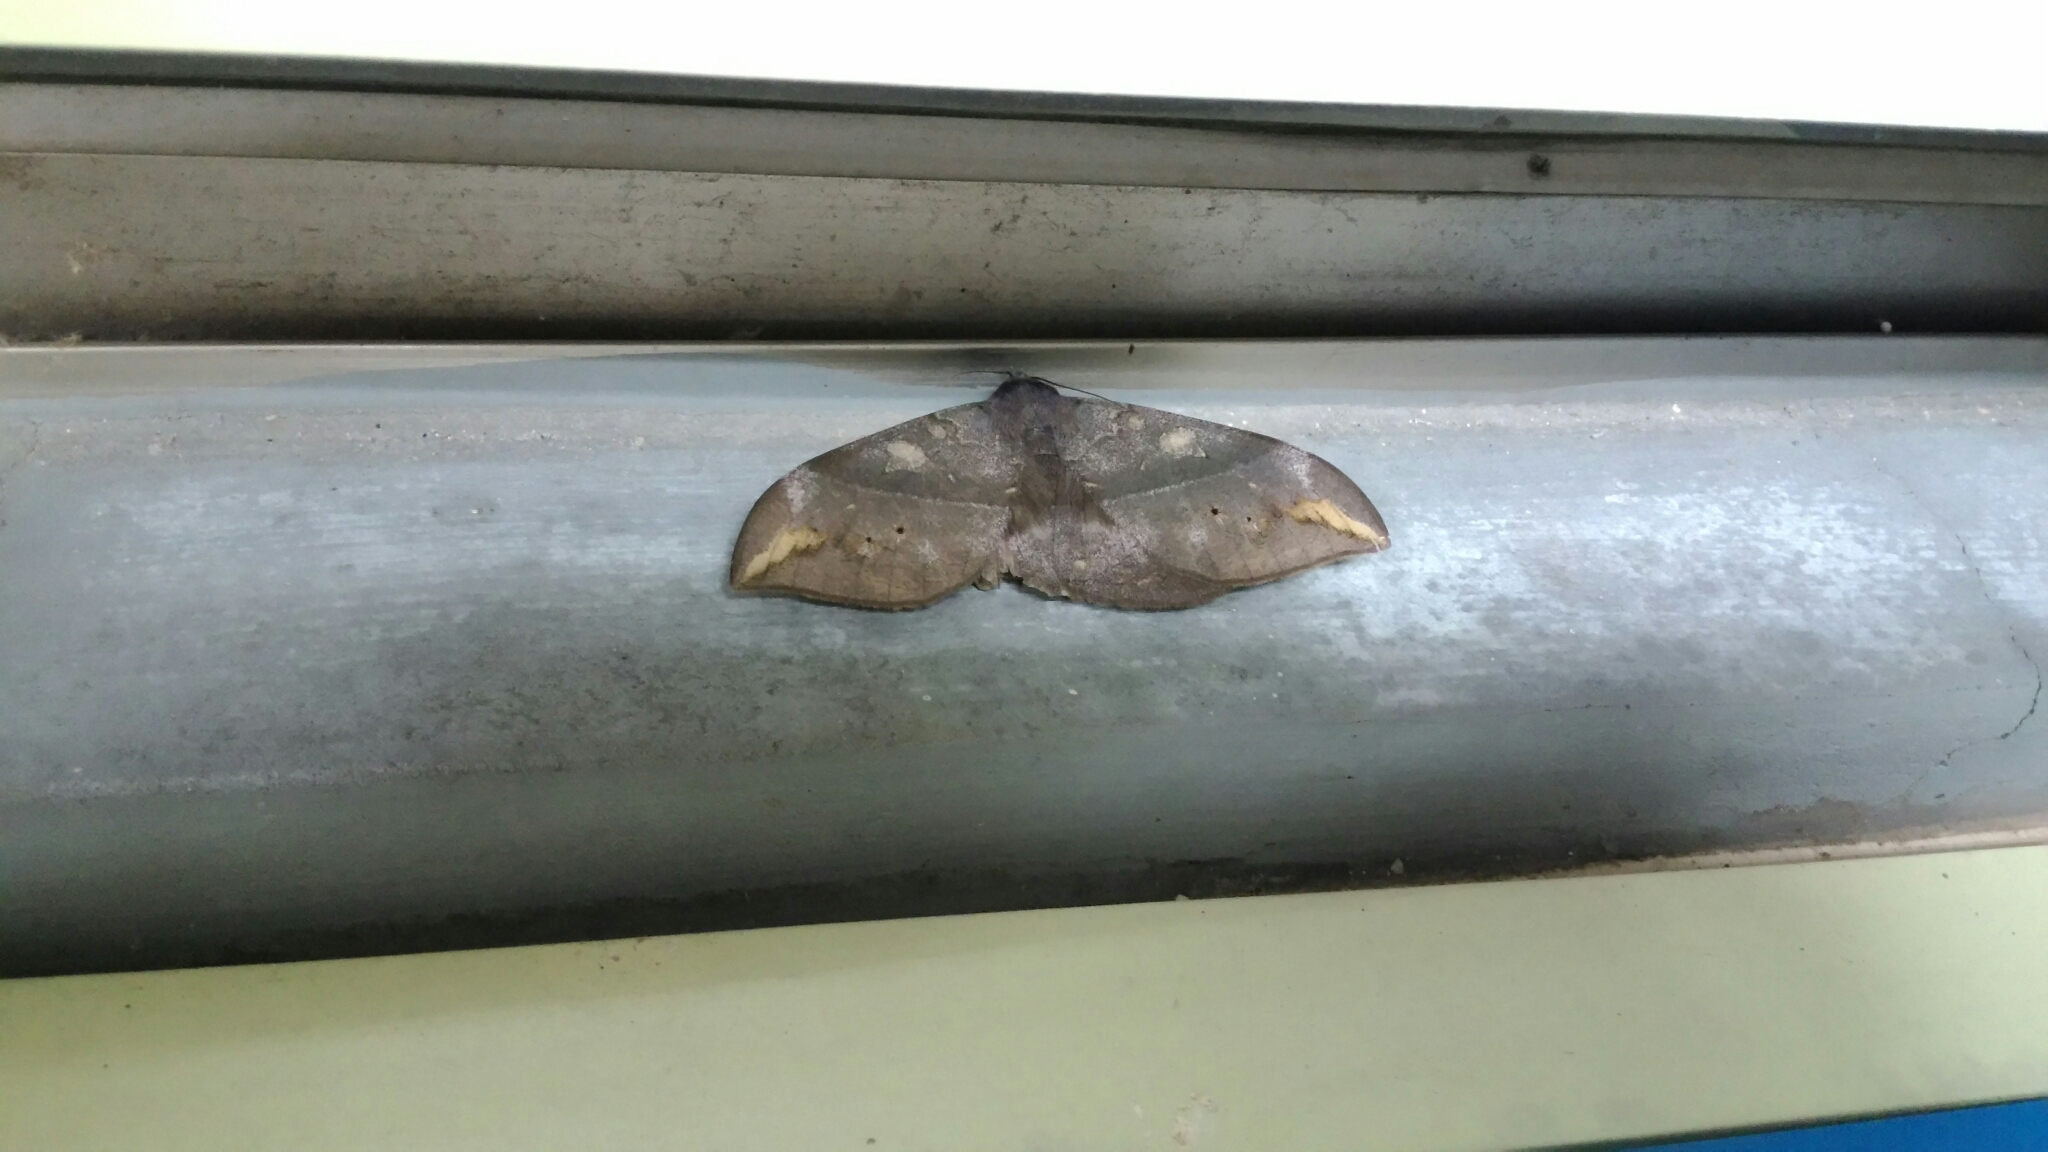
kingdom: Animalia
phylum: Arthropoda
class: Insecta
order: Lepidoptera
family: Erebidae
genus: Ischyja
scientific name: Ischyja ferrifracta
